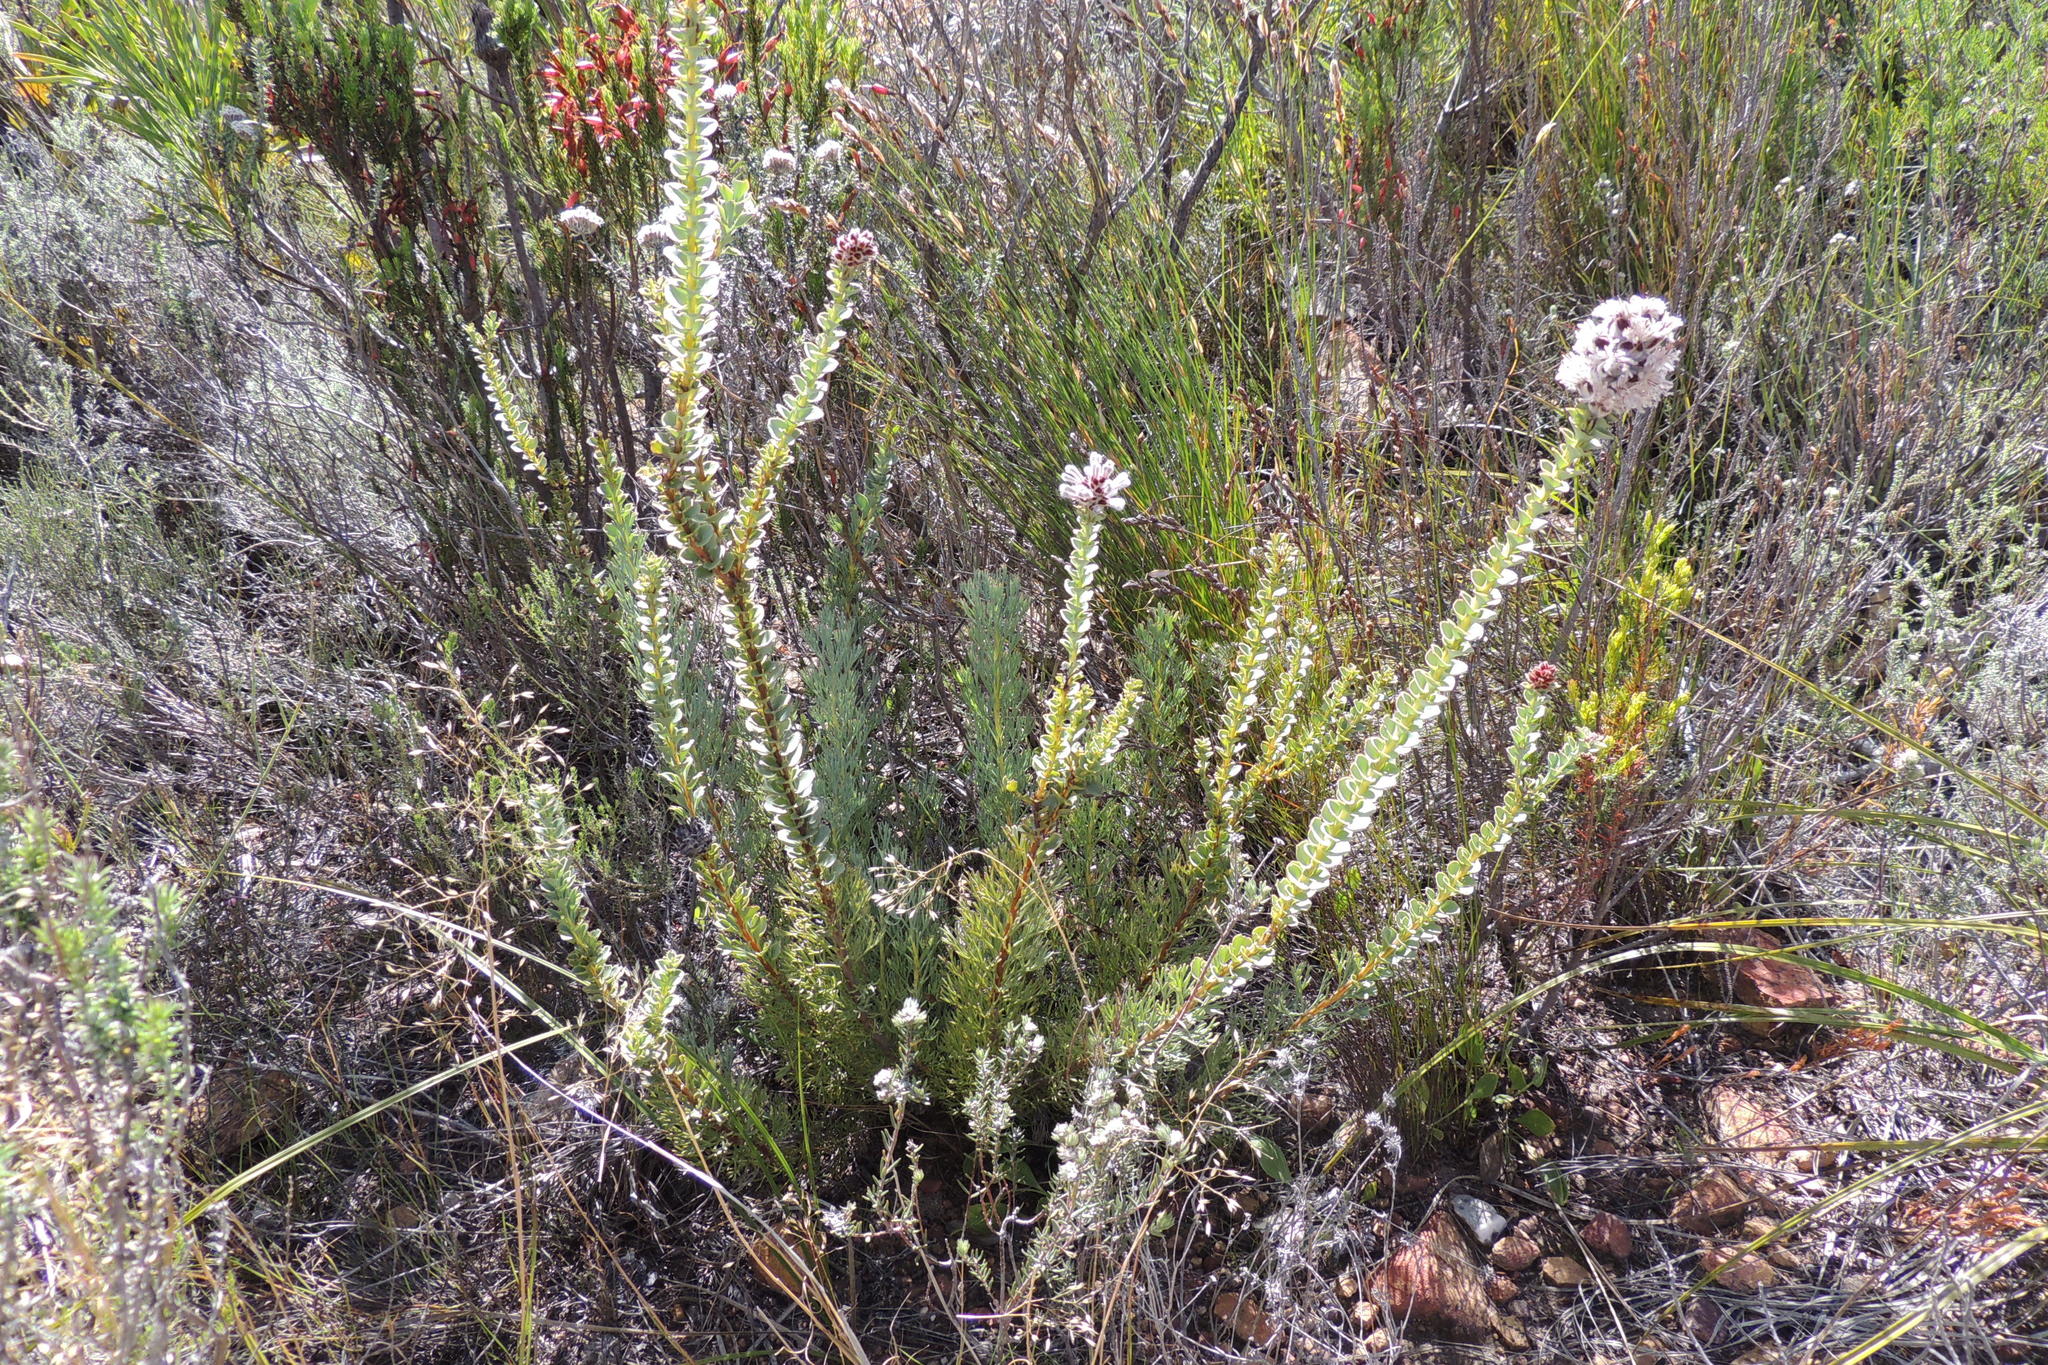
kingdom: Plantae
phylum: Tracheophyta
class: Magnoliopsida
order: Proteales
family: Proteaceae
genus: Paranomus
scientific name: Paranomus spathulatus
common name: Langeberg sceptre
